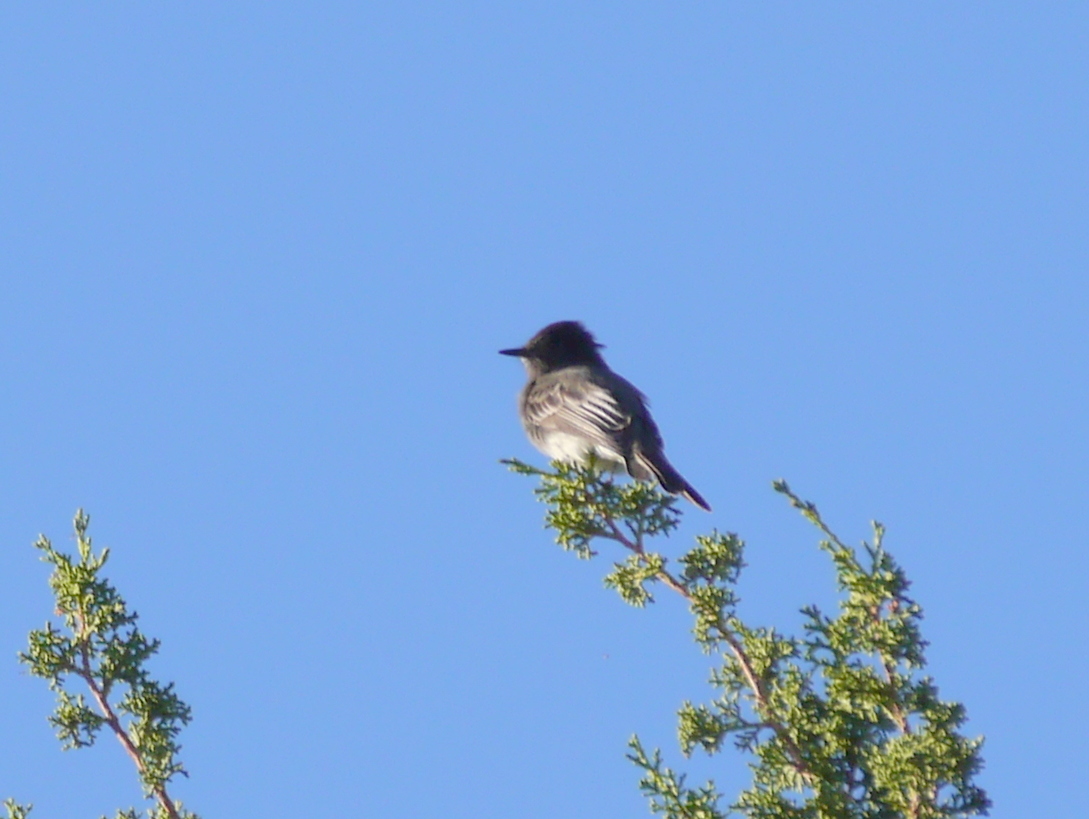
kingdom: Animalia
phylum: Chordata
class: Aves
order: Passeriformes
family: Tyrannidae
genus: Sayornis
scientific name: Sayornis nigricans
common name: Black phoebe
